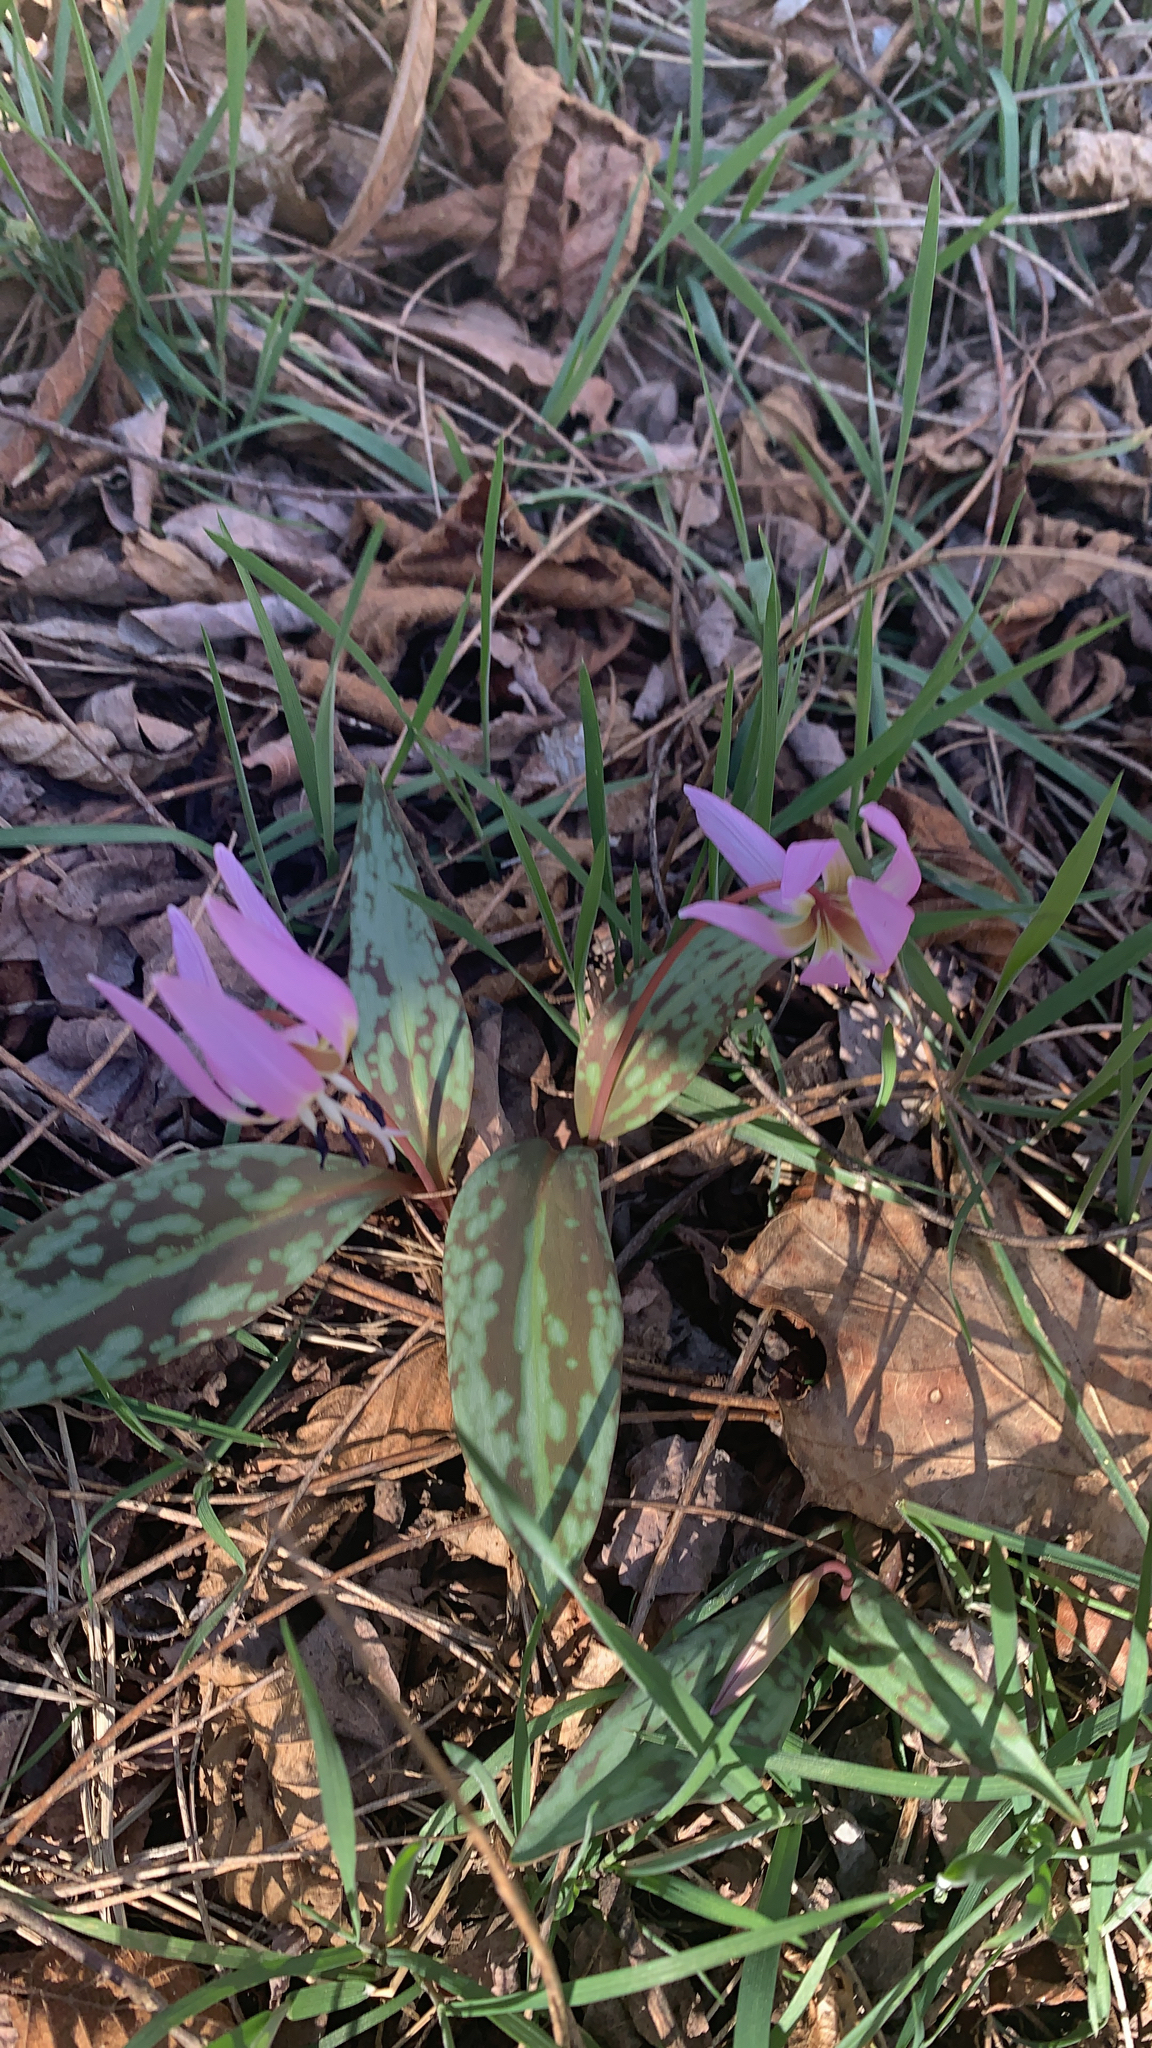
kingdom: Plantae
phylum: Tracheophyta
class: Liliopsida
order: Liliales
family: Liliaceae
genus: Erythronium
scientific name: Erythronium dens-canis
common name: Dog's-tooth-violet
